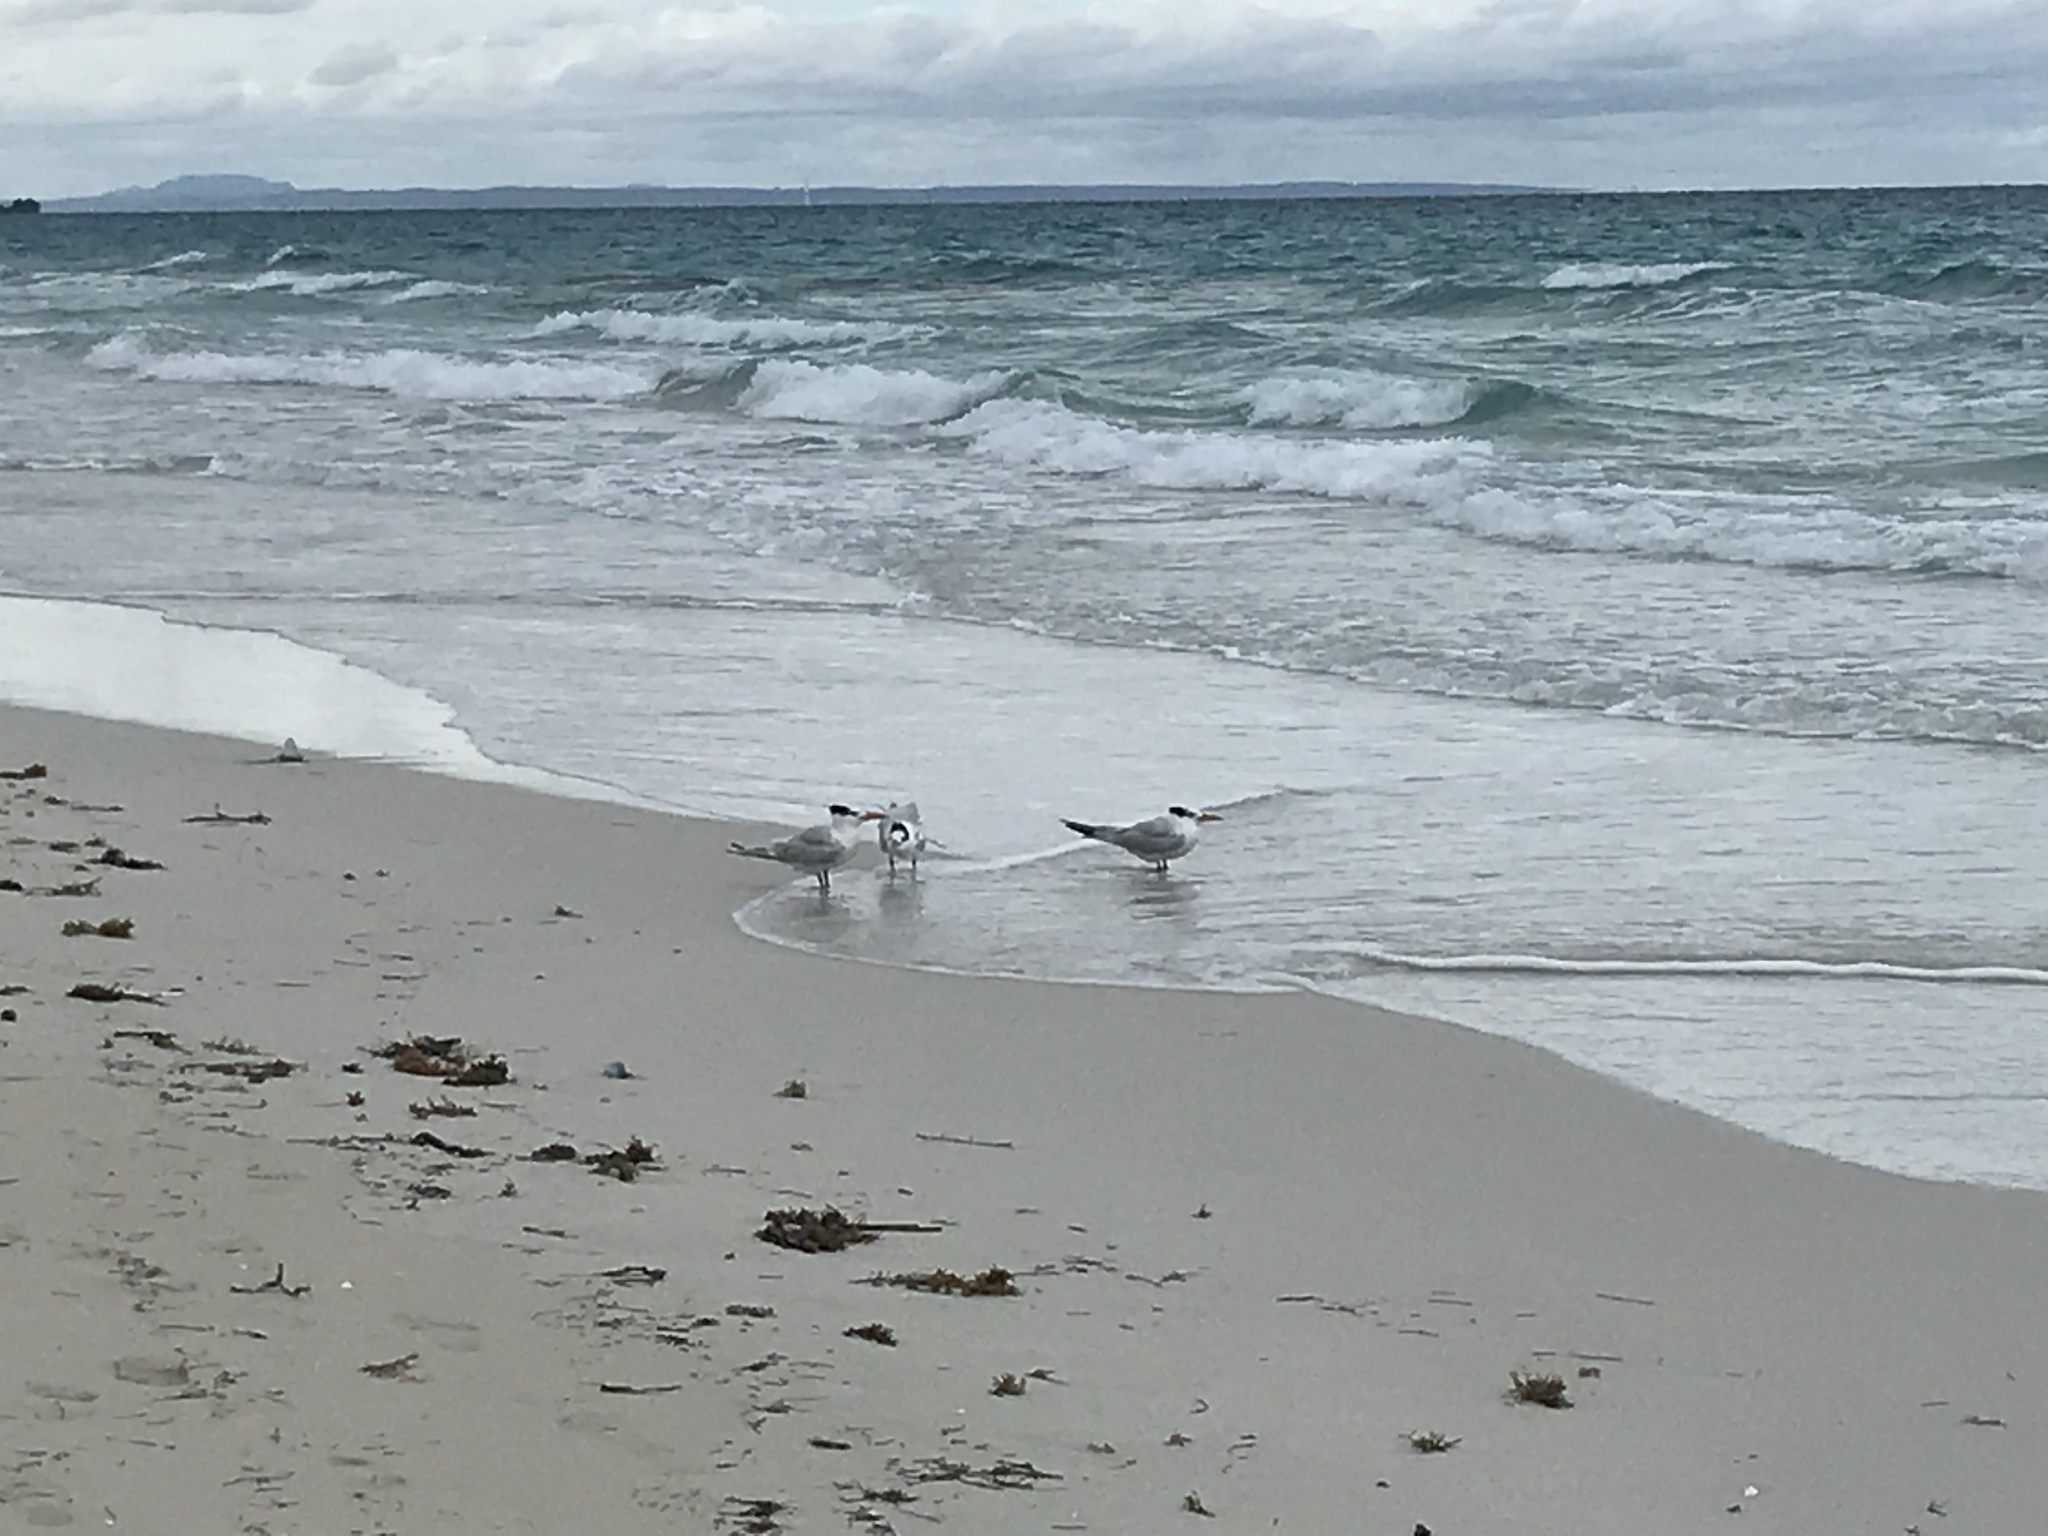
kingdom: Animalia
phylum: Chordata
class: Aves
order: Charadriiformes
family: Laridae
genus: Thalasseus
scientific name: Thalasseus maximus
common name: Royal tern
